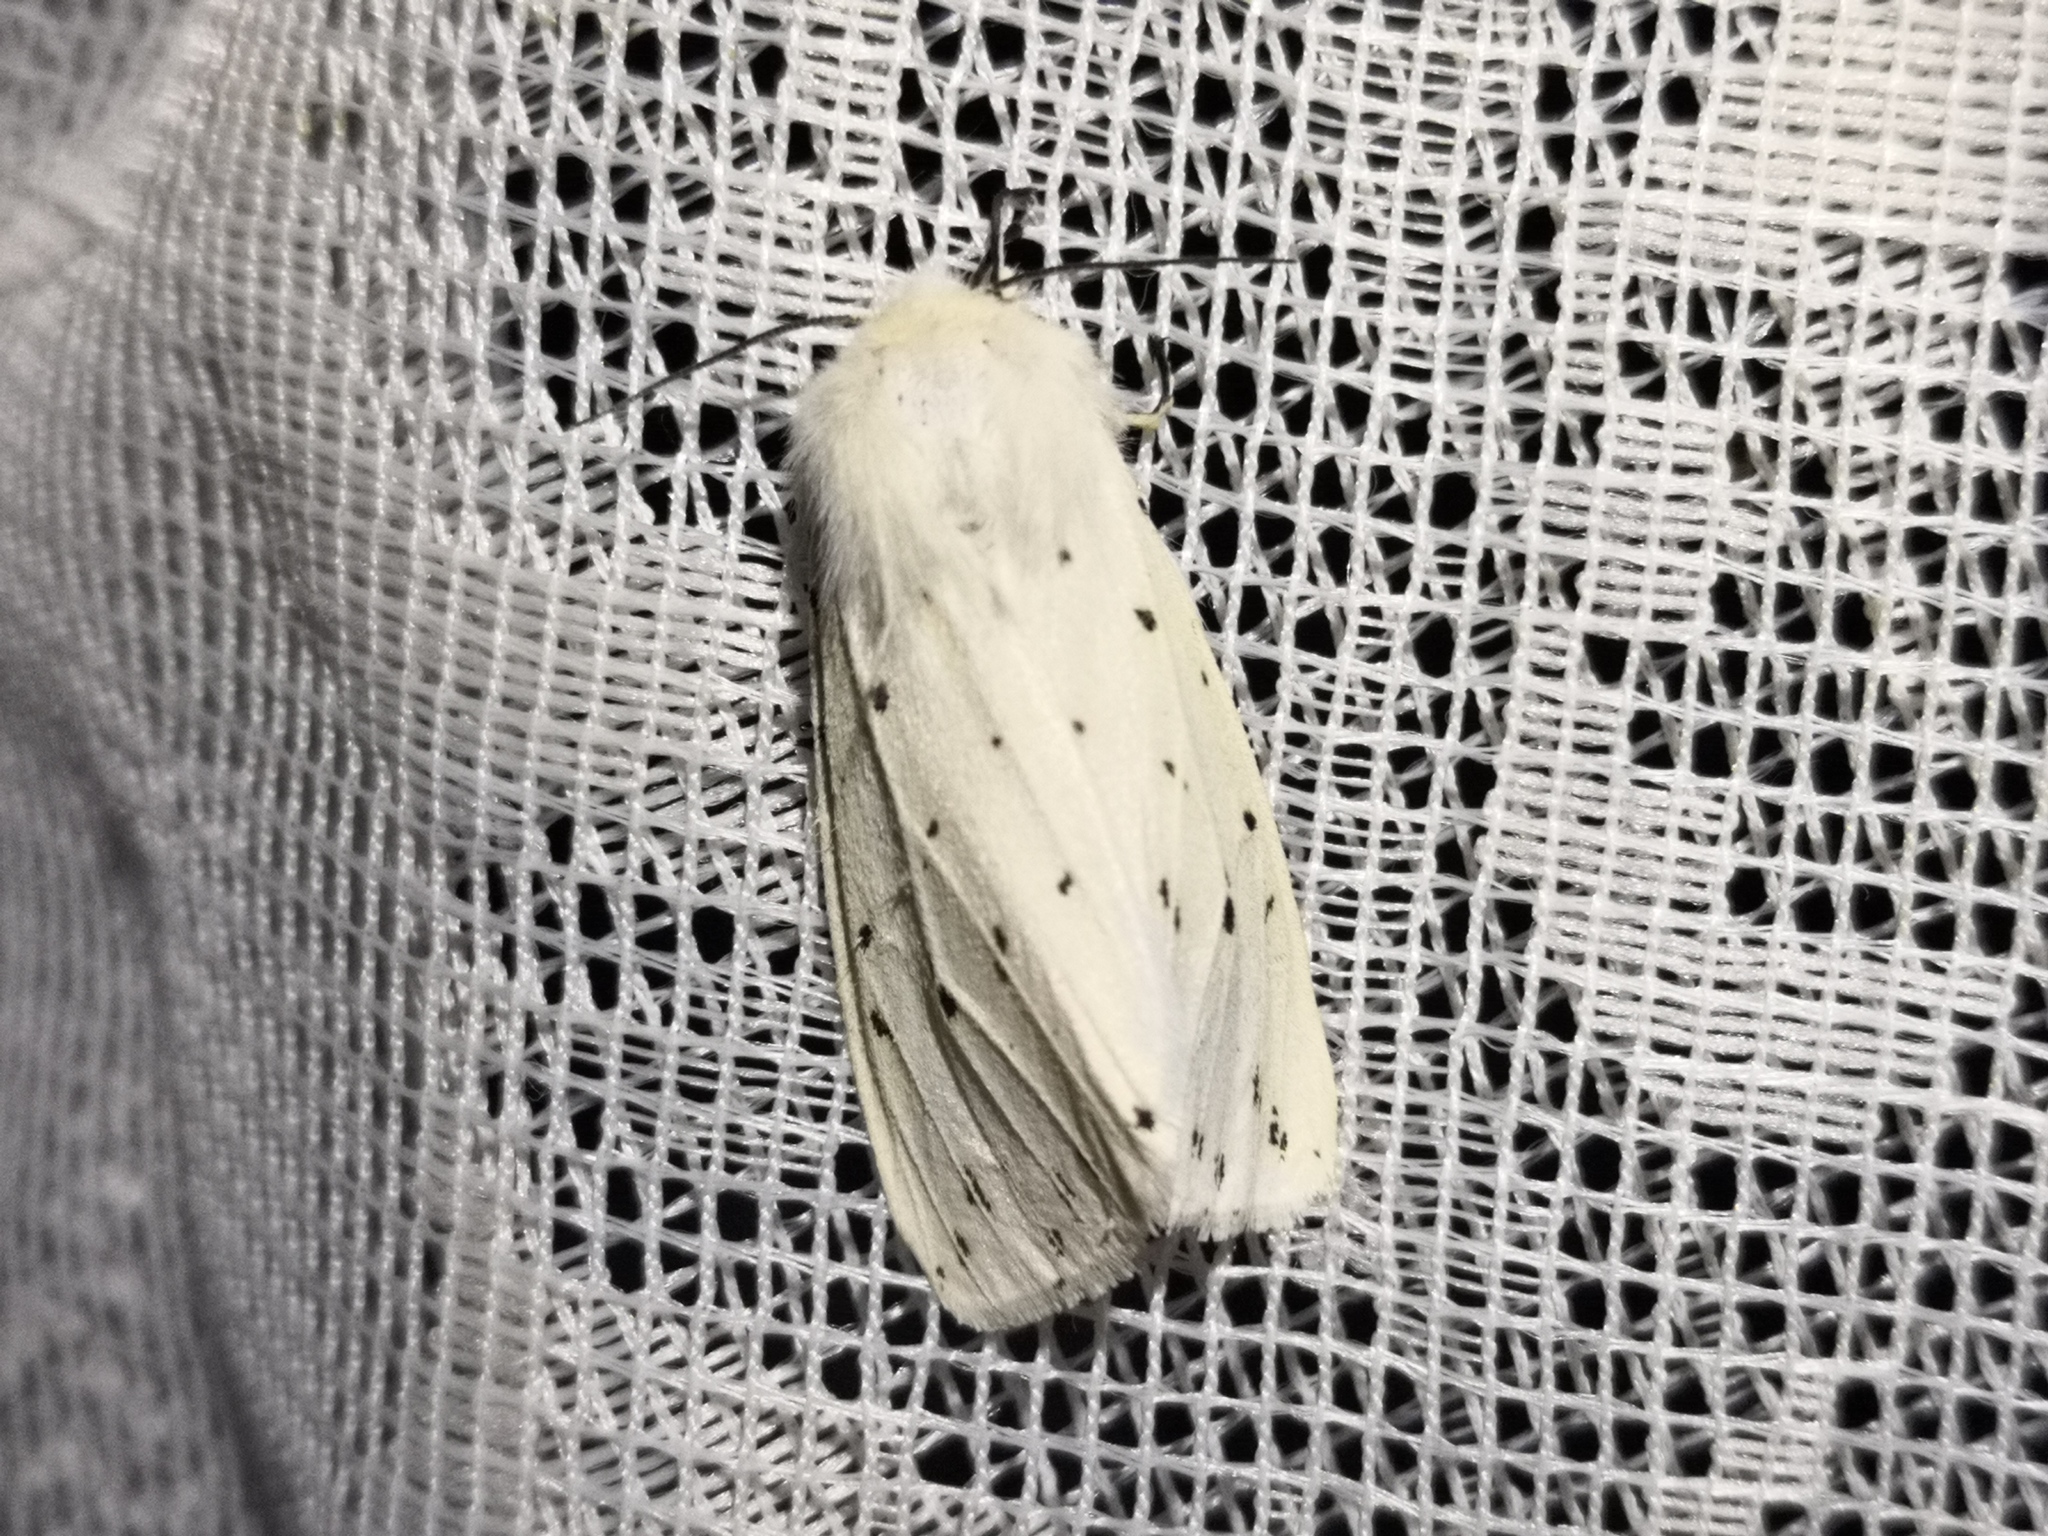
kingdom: Animalia
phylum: Arthropoda
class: Insecta
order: Lepidoptera
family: Erebidae
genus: Spilosoma
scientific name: Spilosoma lubricipeda
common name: White ermine
